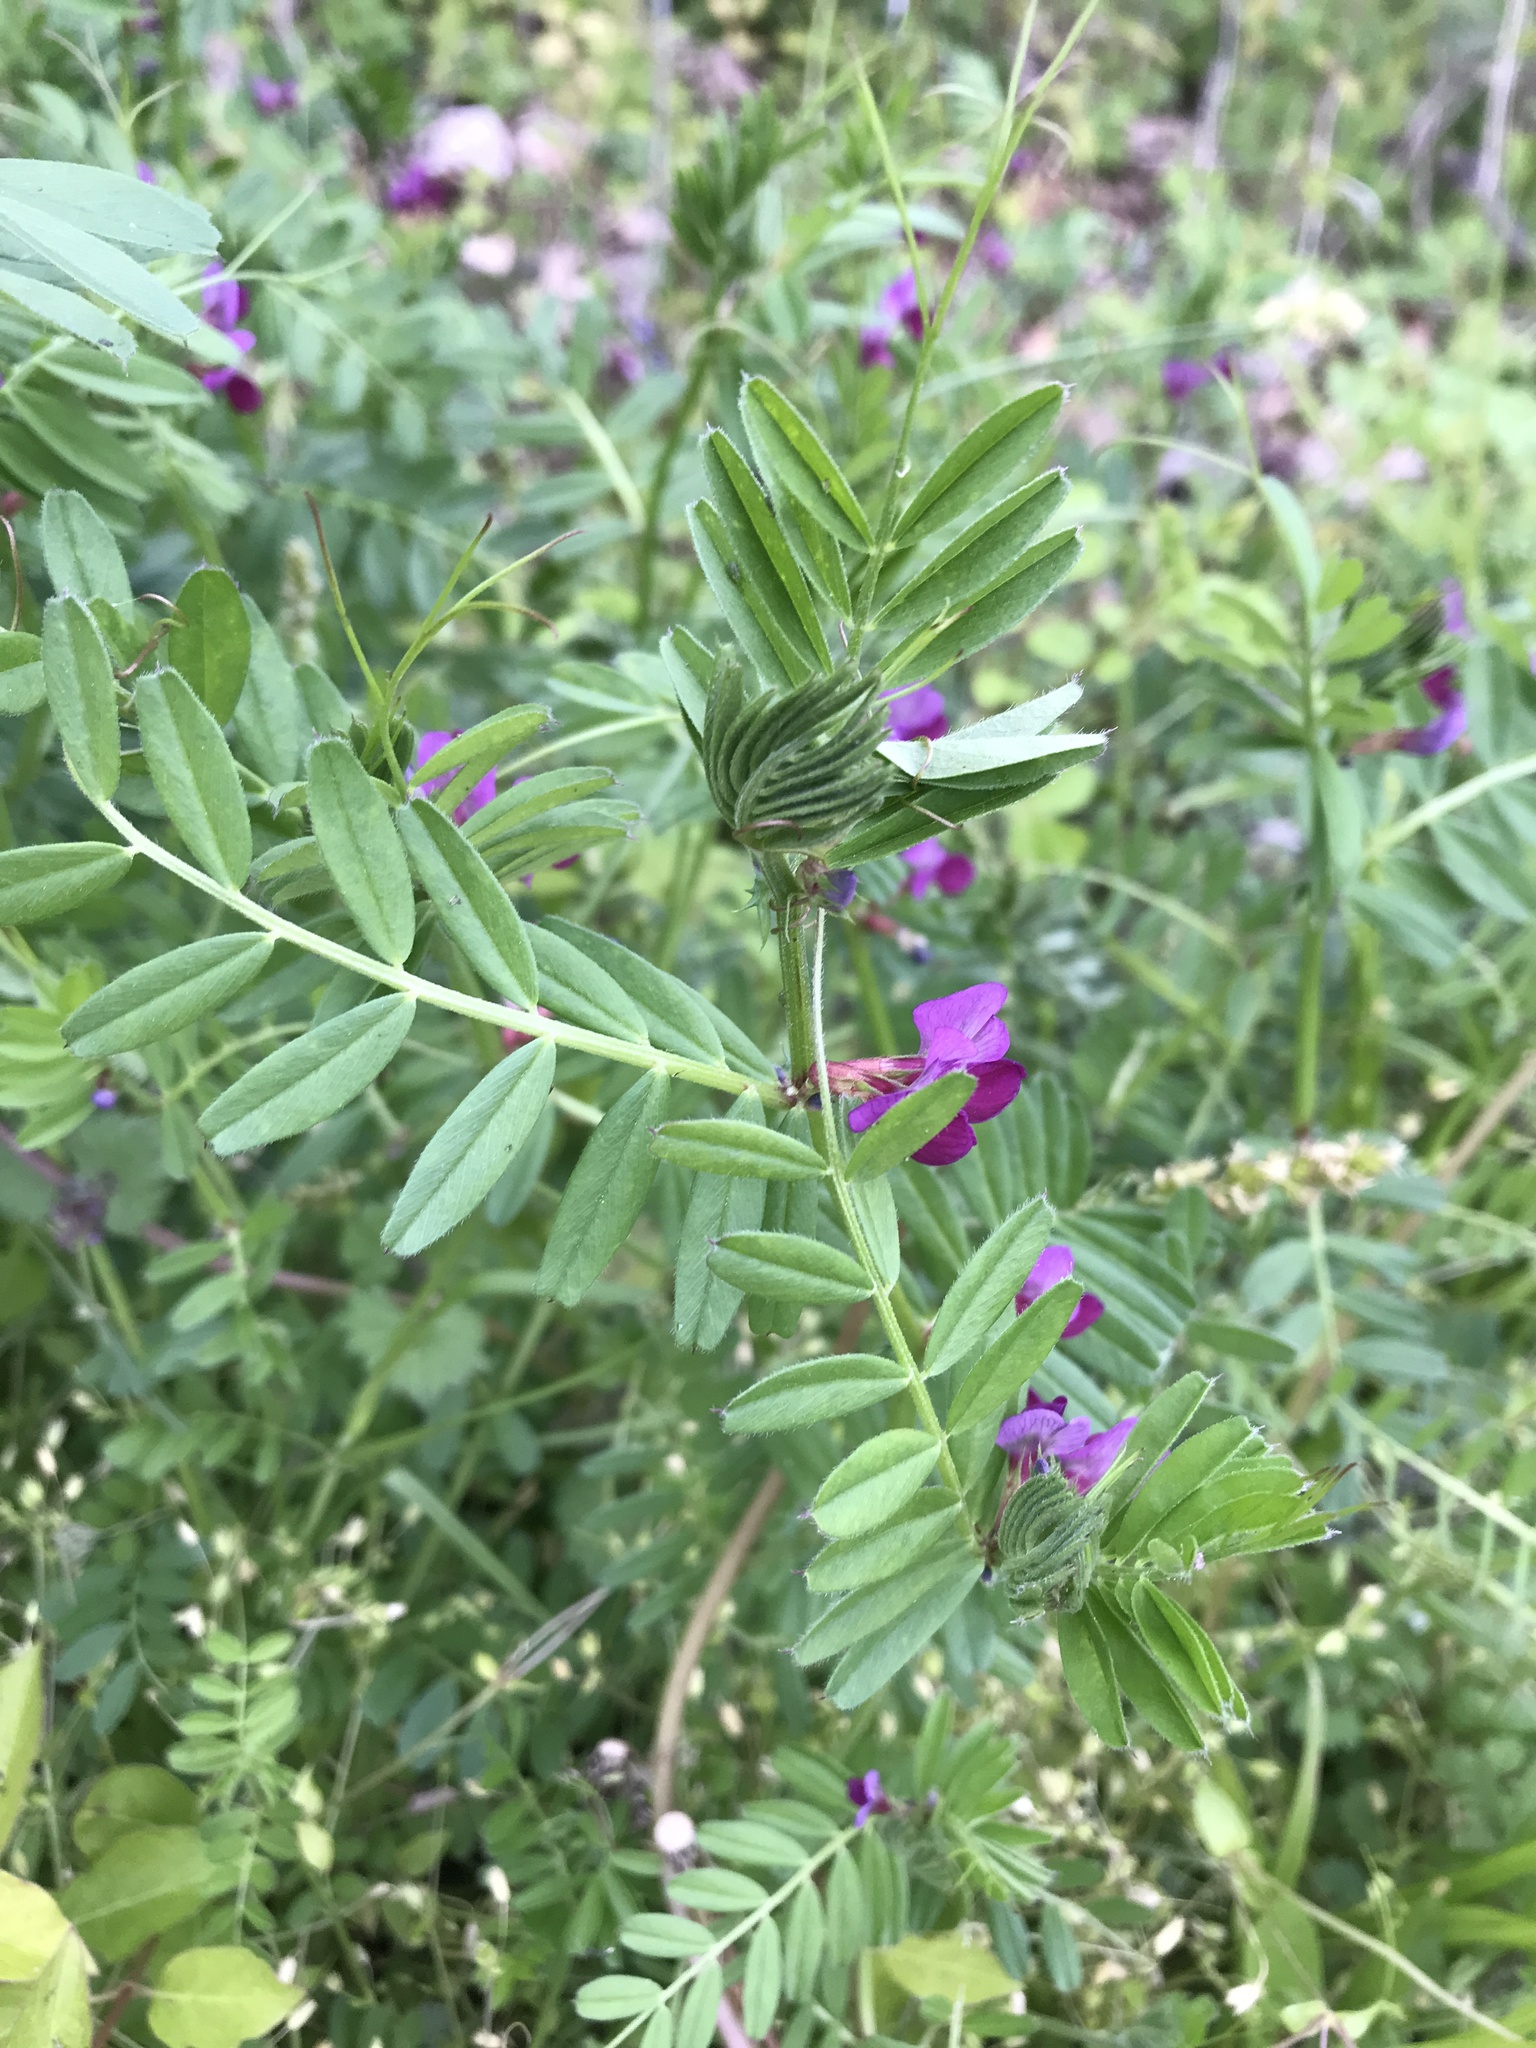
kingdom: Plantae
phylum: Tracheophyta
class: Magnoliopsida
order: Fabales
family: Fabaceae
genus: Vicia
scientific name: Vicia sativa
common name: Garden vetch
